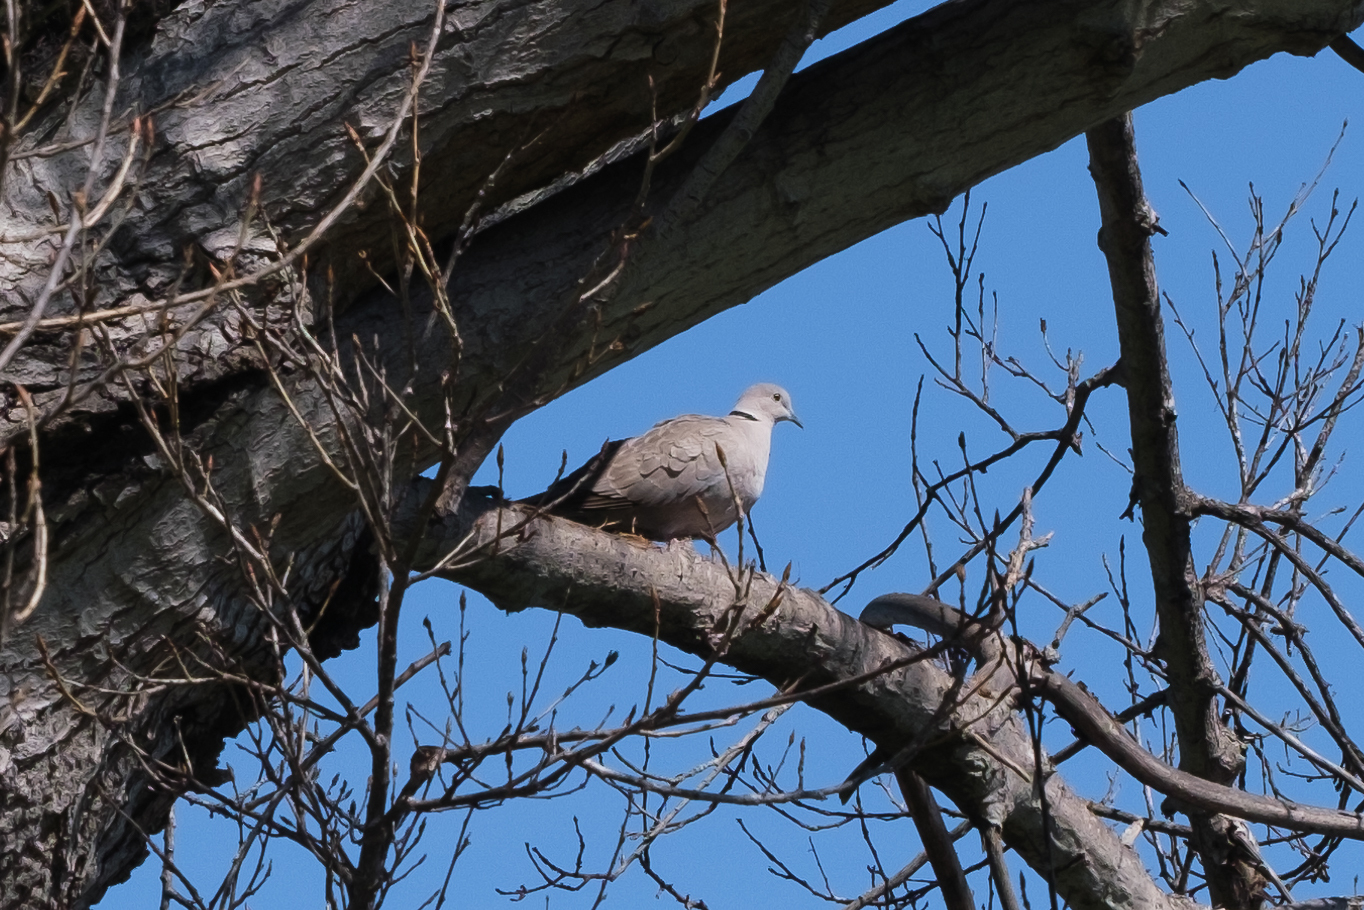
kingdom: Animalia
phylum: Chordata
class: Aves
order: Columbiformes
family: Columbidae
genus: Streptopelia
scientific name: Streptopelia decaocto
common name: Eurasian collared dove
